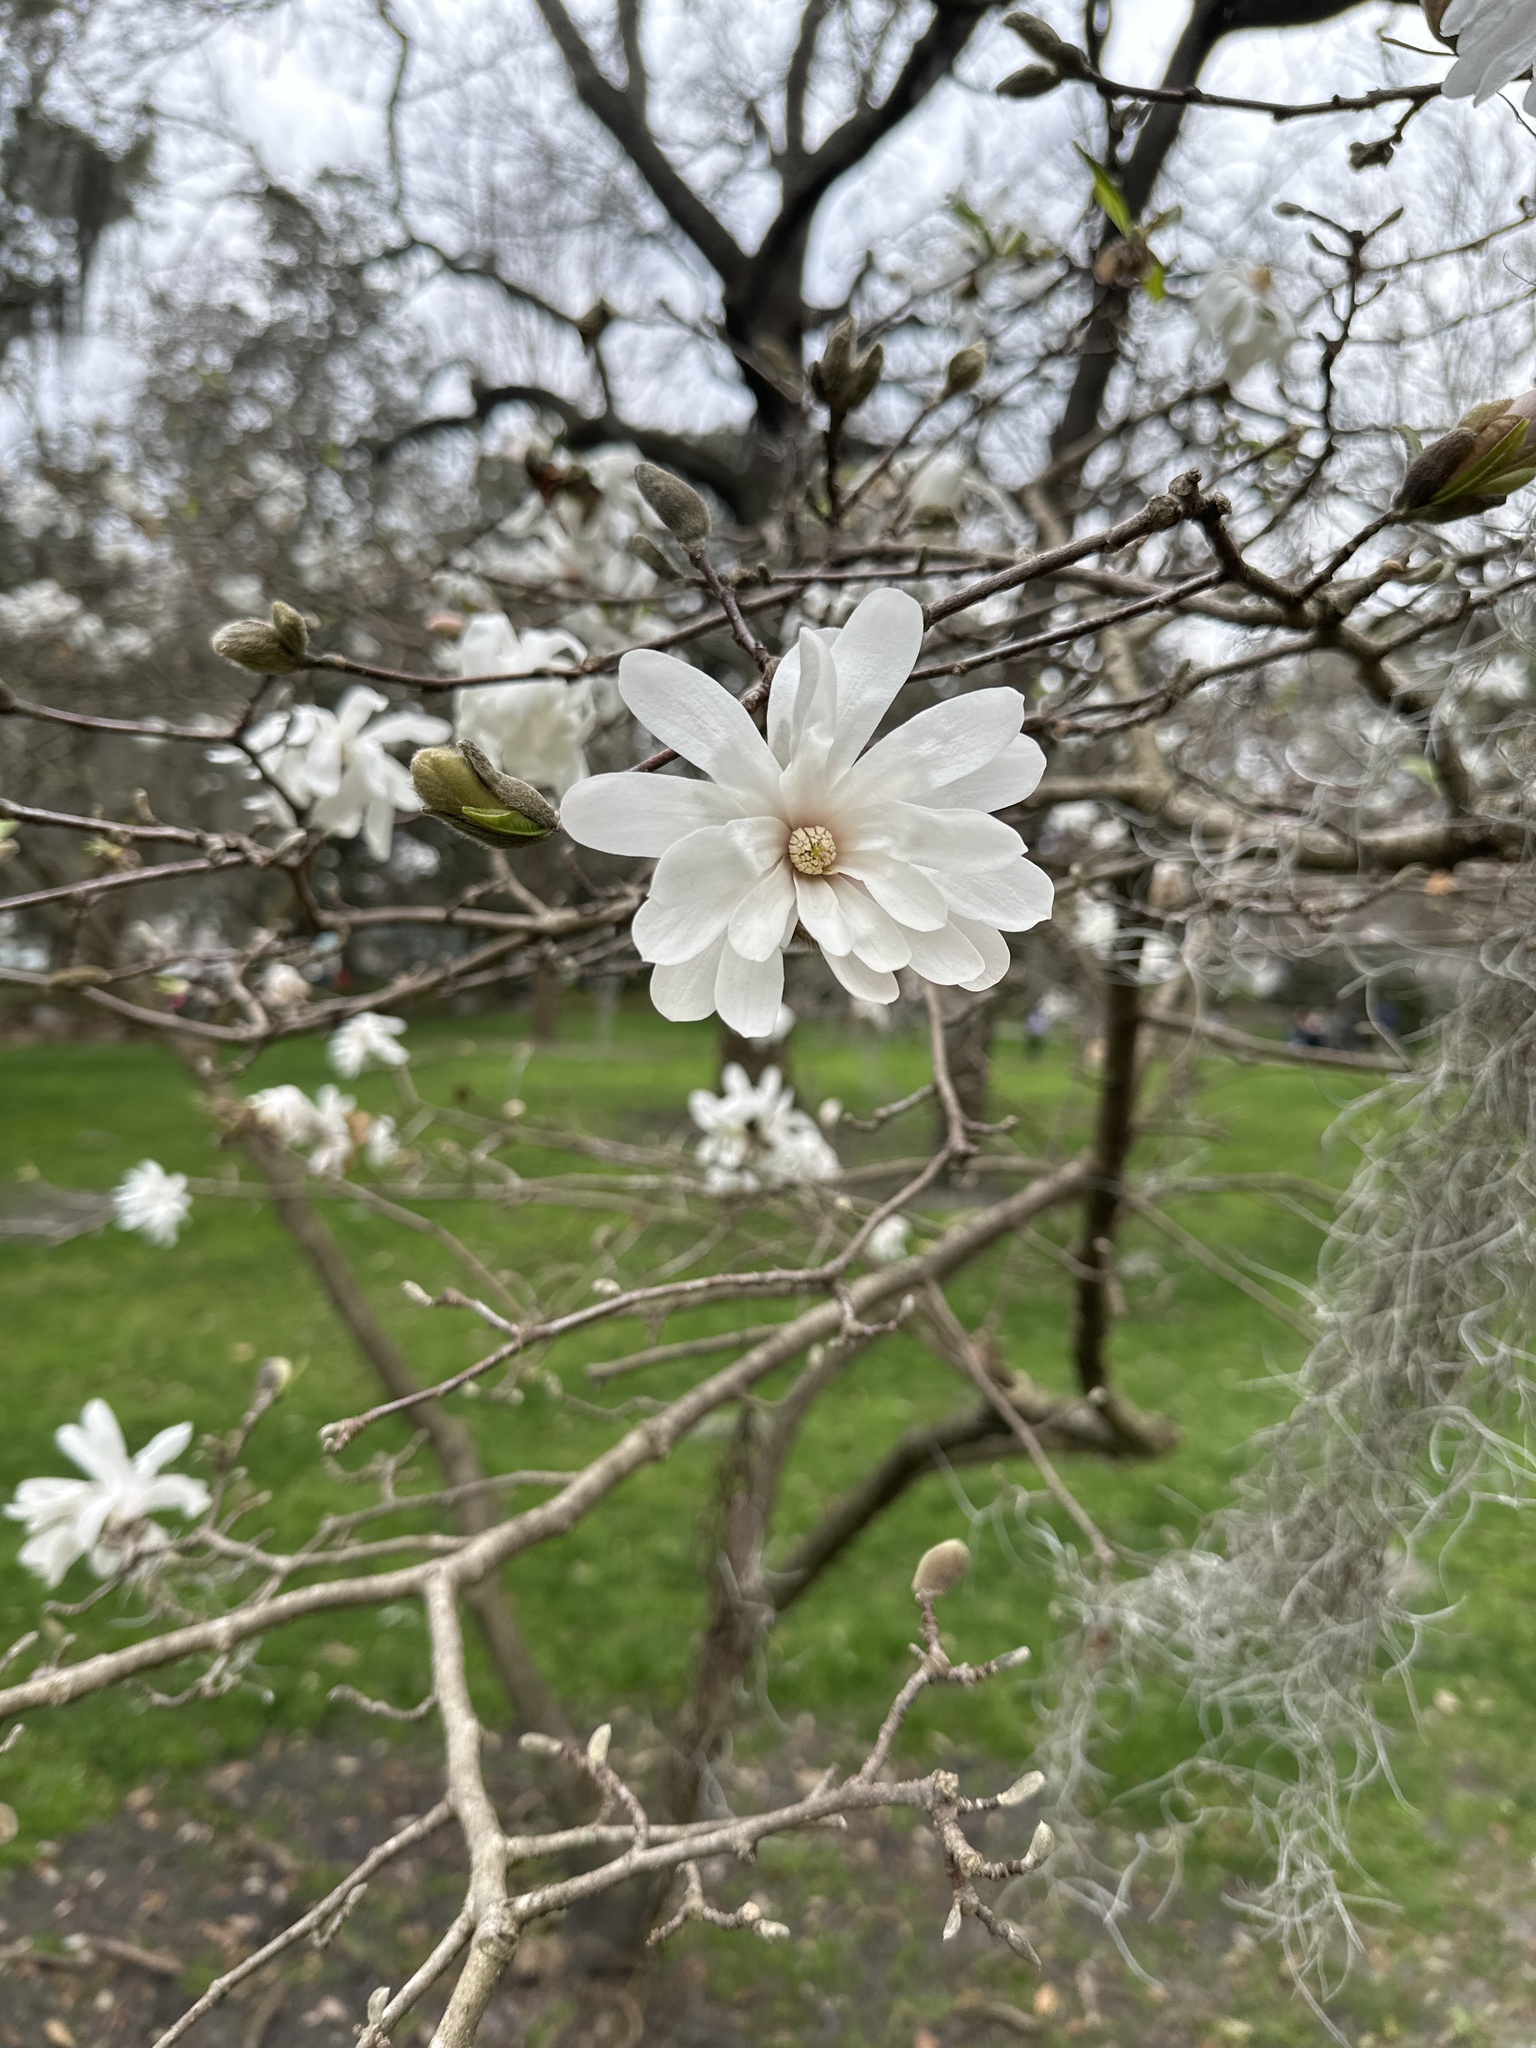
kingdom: Plantae
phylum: Tracheophyta
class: Magnoliopsida
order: Magnoliales
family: Magnoliaceae
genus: Magnolia
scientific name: Magnolia stellata
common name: Star magnolia
